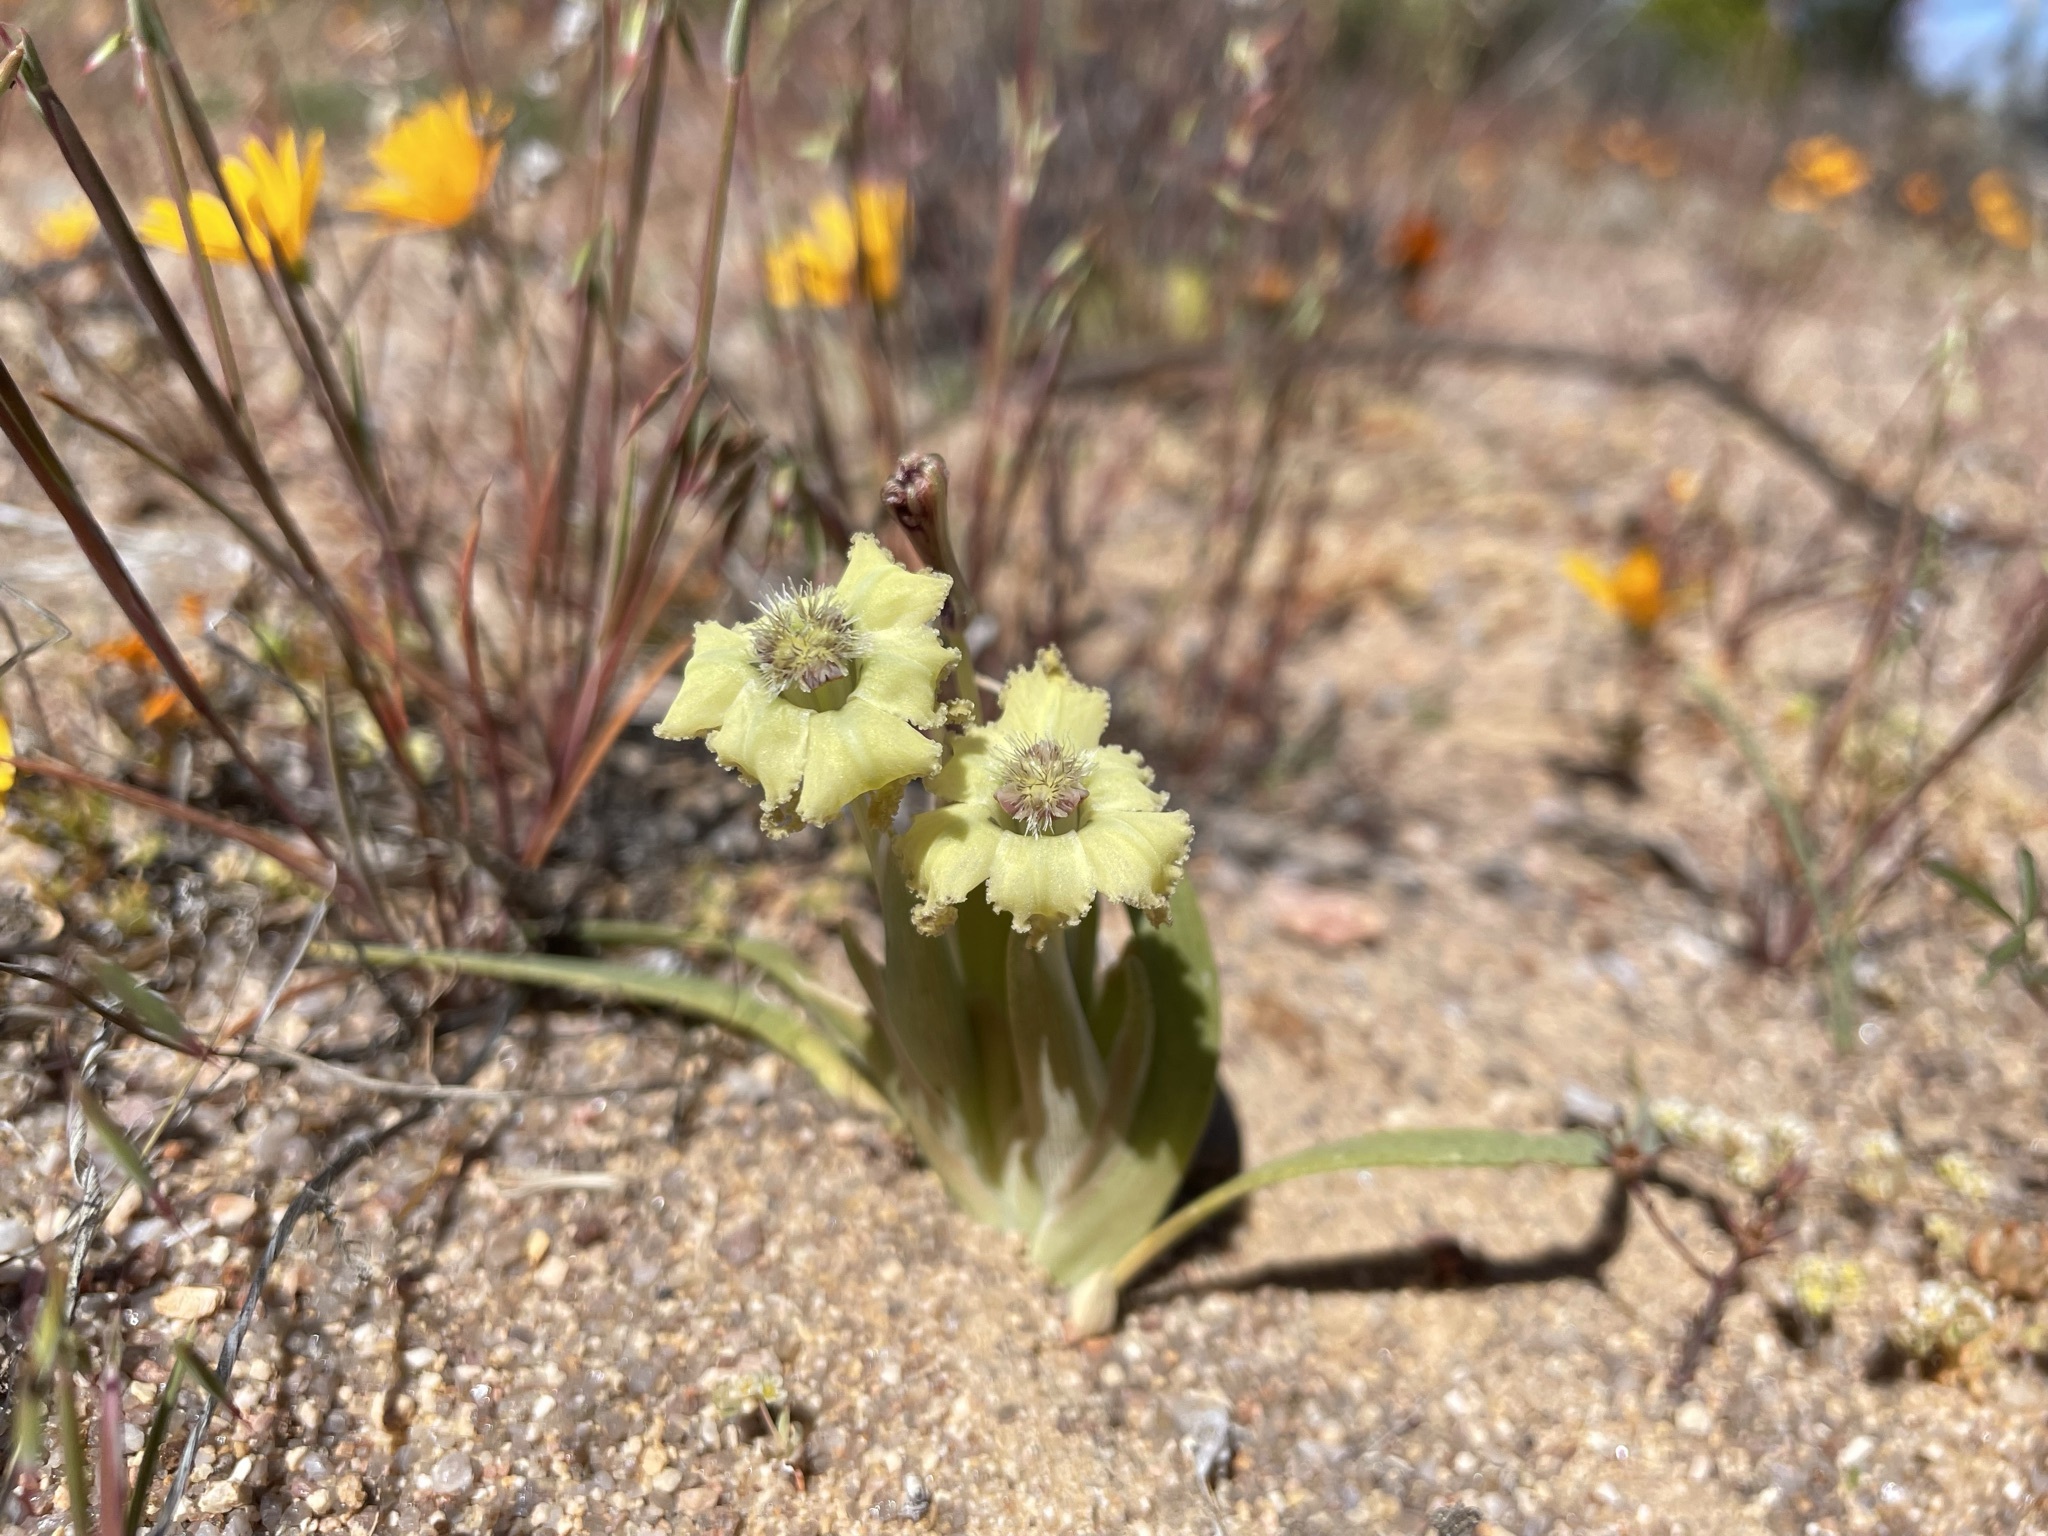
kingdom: Plantae
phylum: Tracheophyta
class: Liliopsida
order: Asparagales
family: Iridaceae
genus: Ferraria
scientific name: Ferraria macrochlamys
